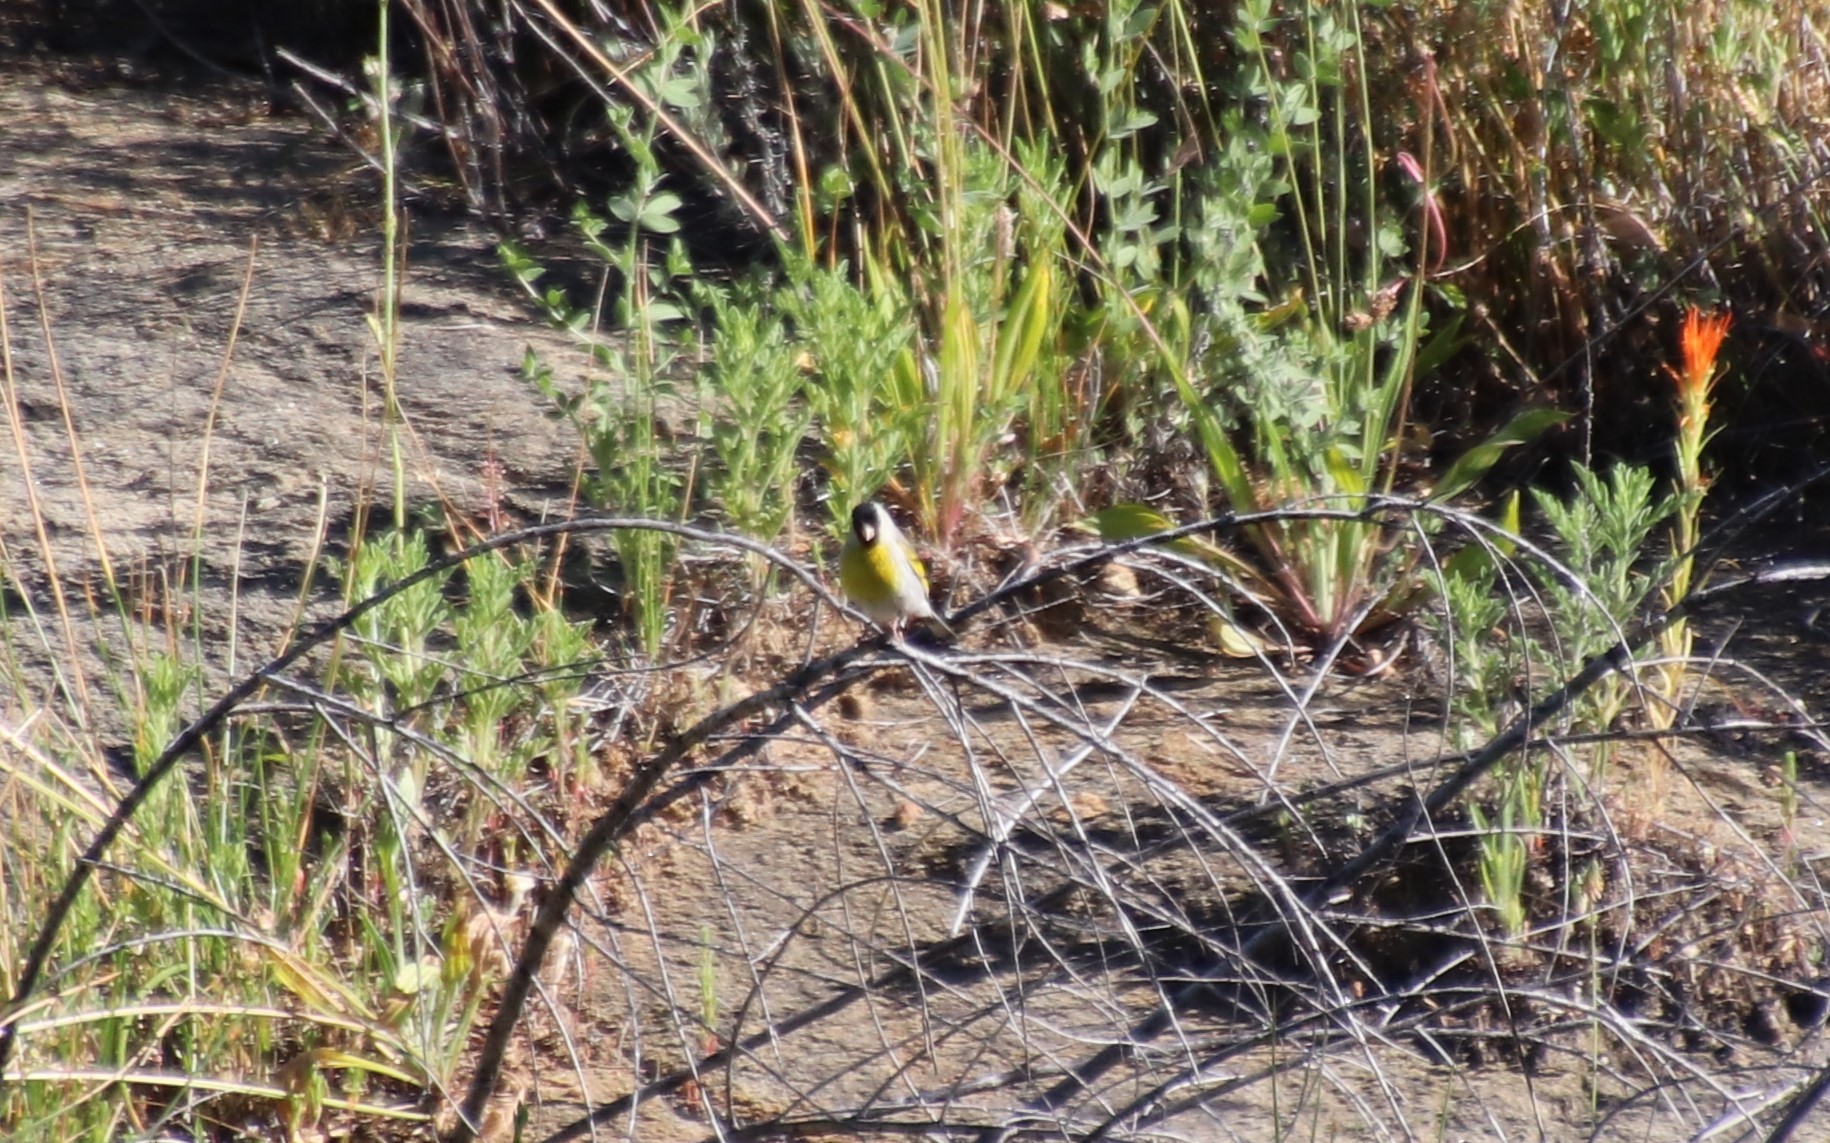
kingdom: Animalia
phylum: Chordata
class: Aves
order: Passeriformes
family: Fringillidae
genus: Spinus
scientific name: Spinus lawrencei
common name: Lawrence's goldfinch
